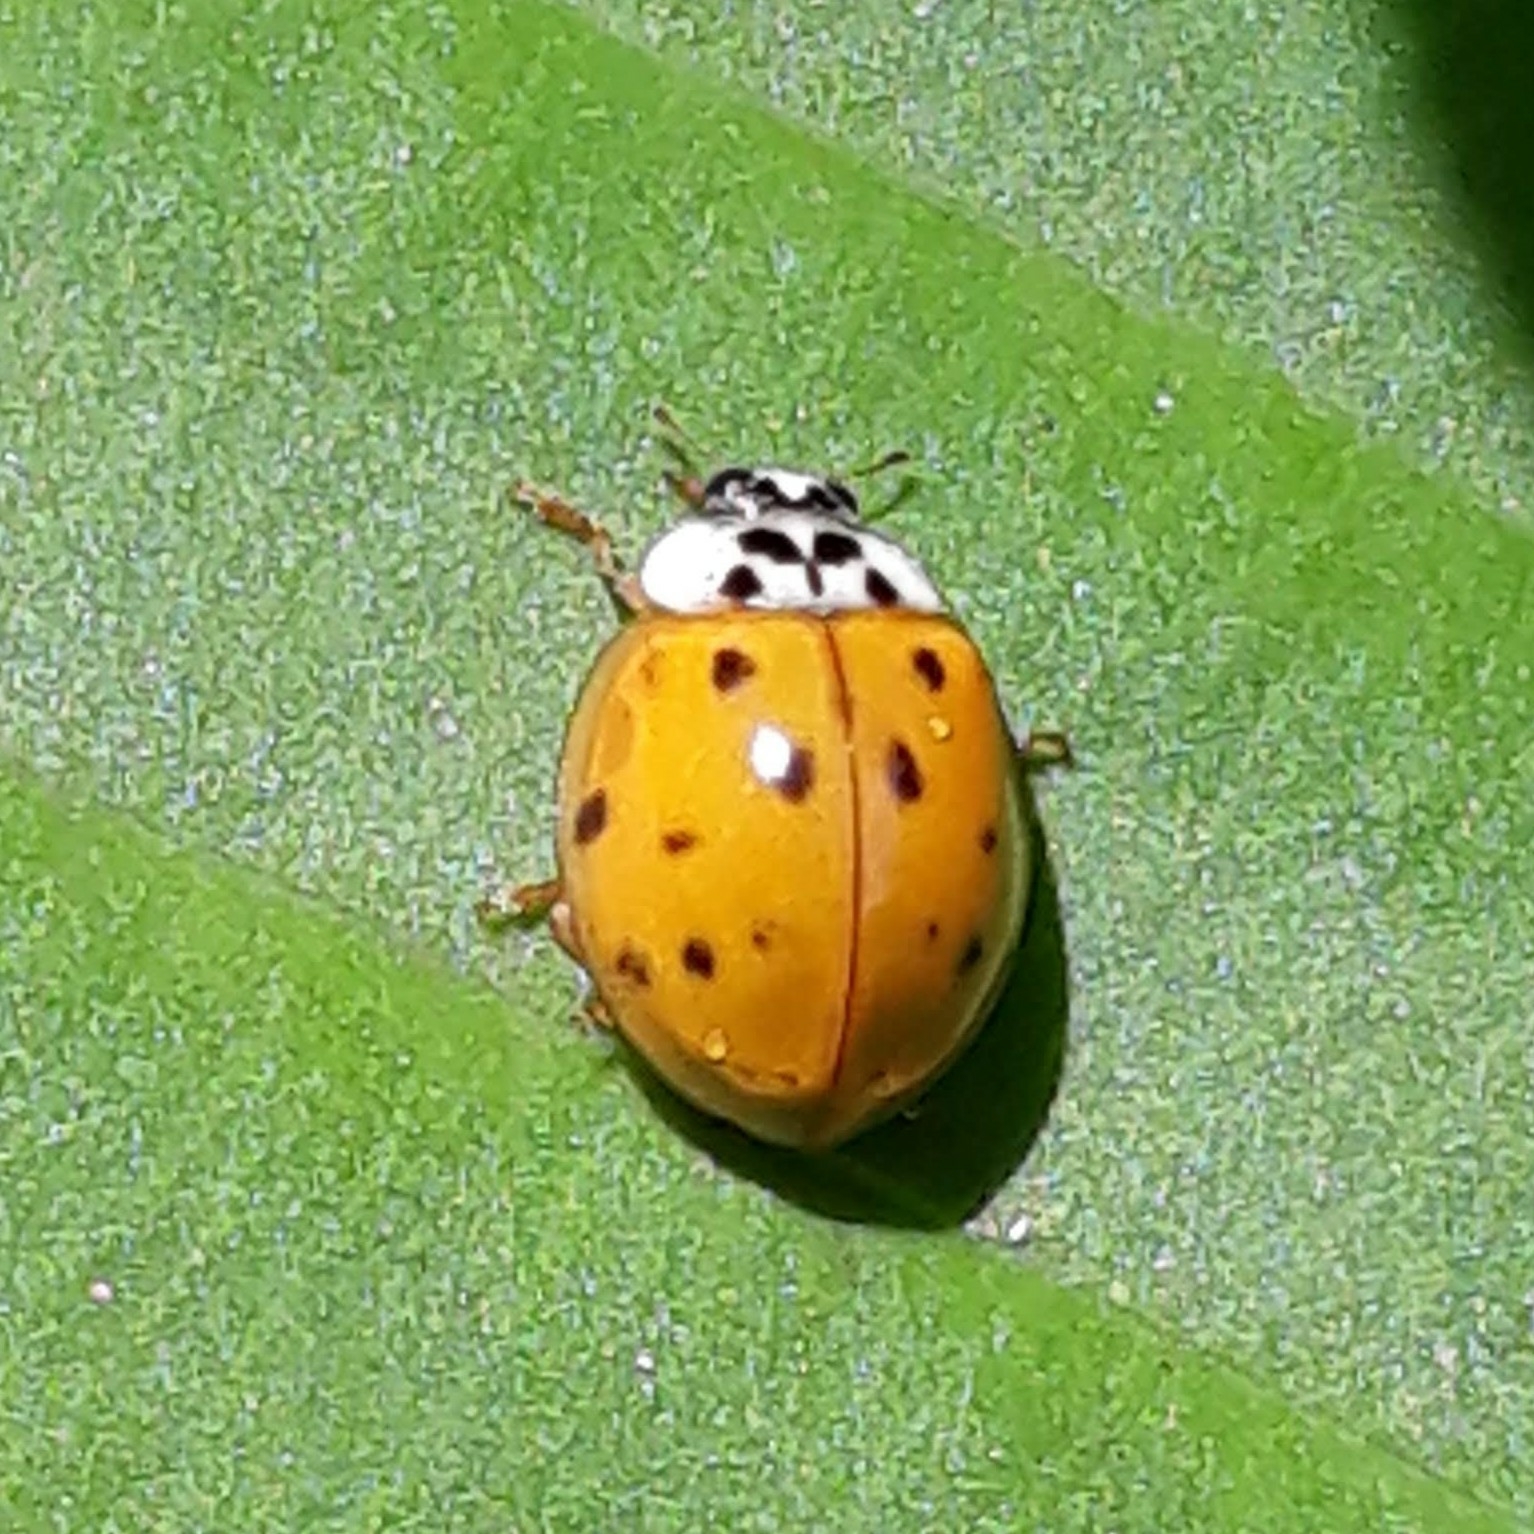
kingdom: Animalia
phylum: Arthropoda
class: Insecta
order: Coleoptera
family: Coccinellidae
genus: Harmonia
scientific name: Harmonia axyridis
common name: Harlequin ladybird
